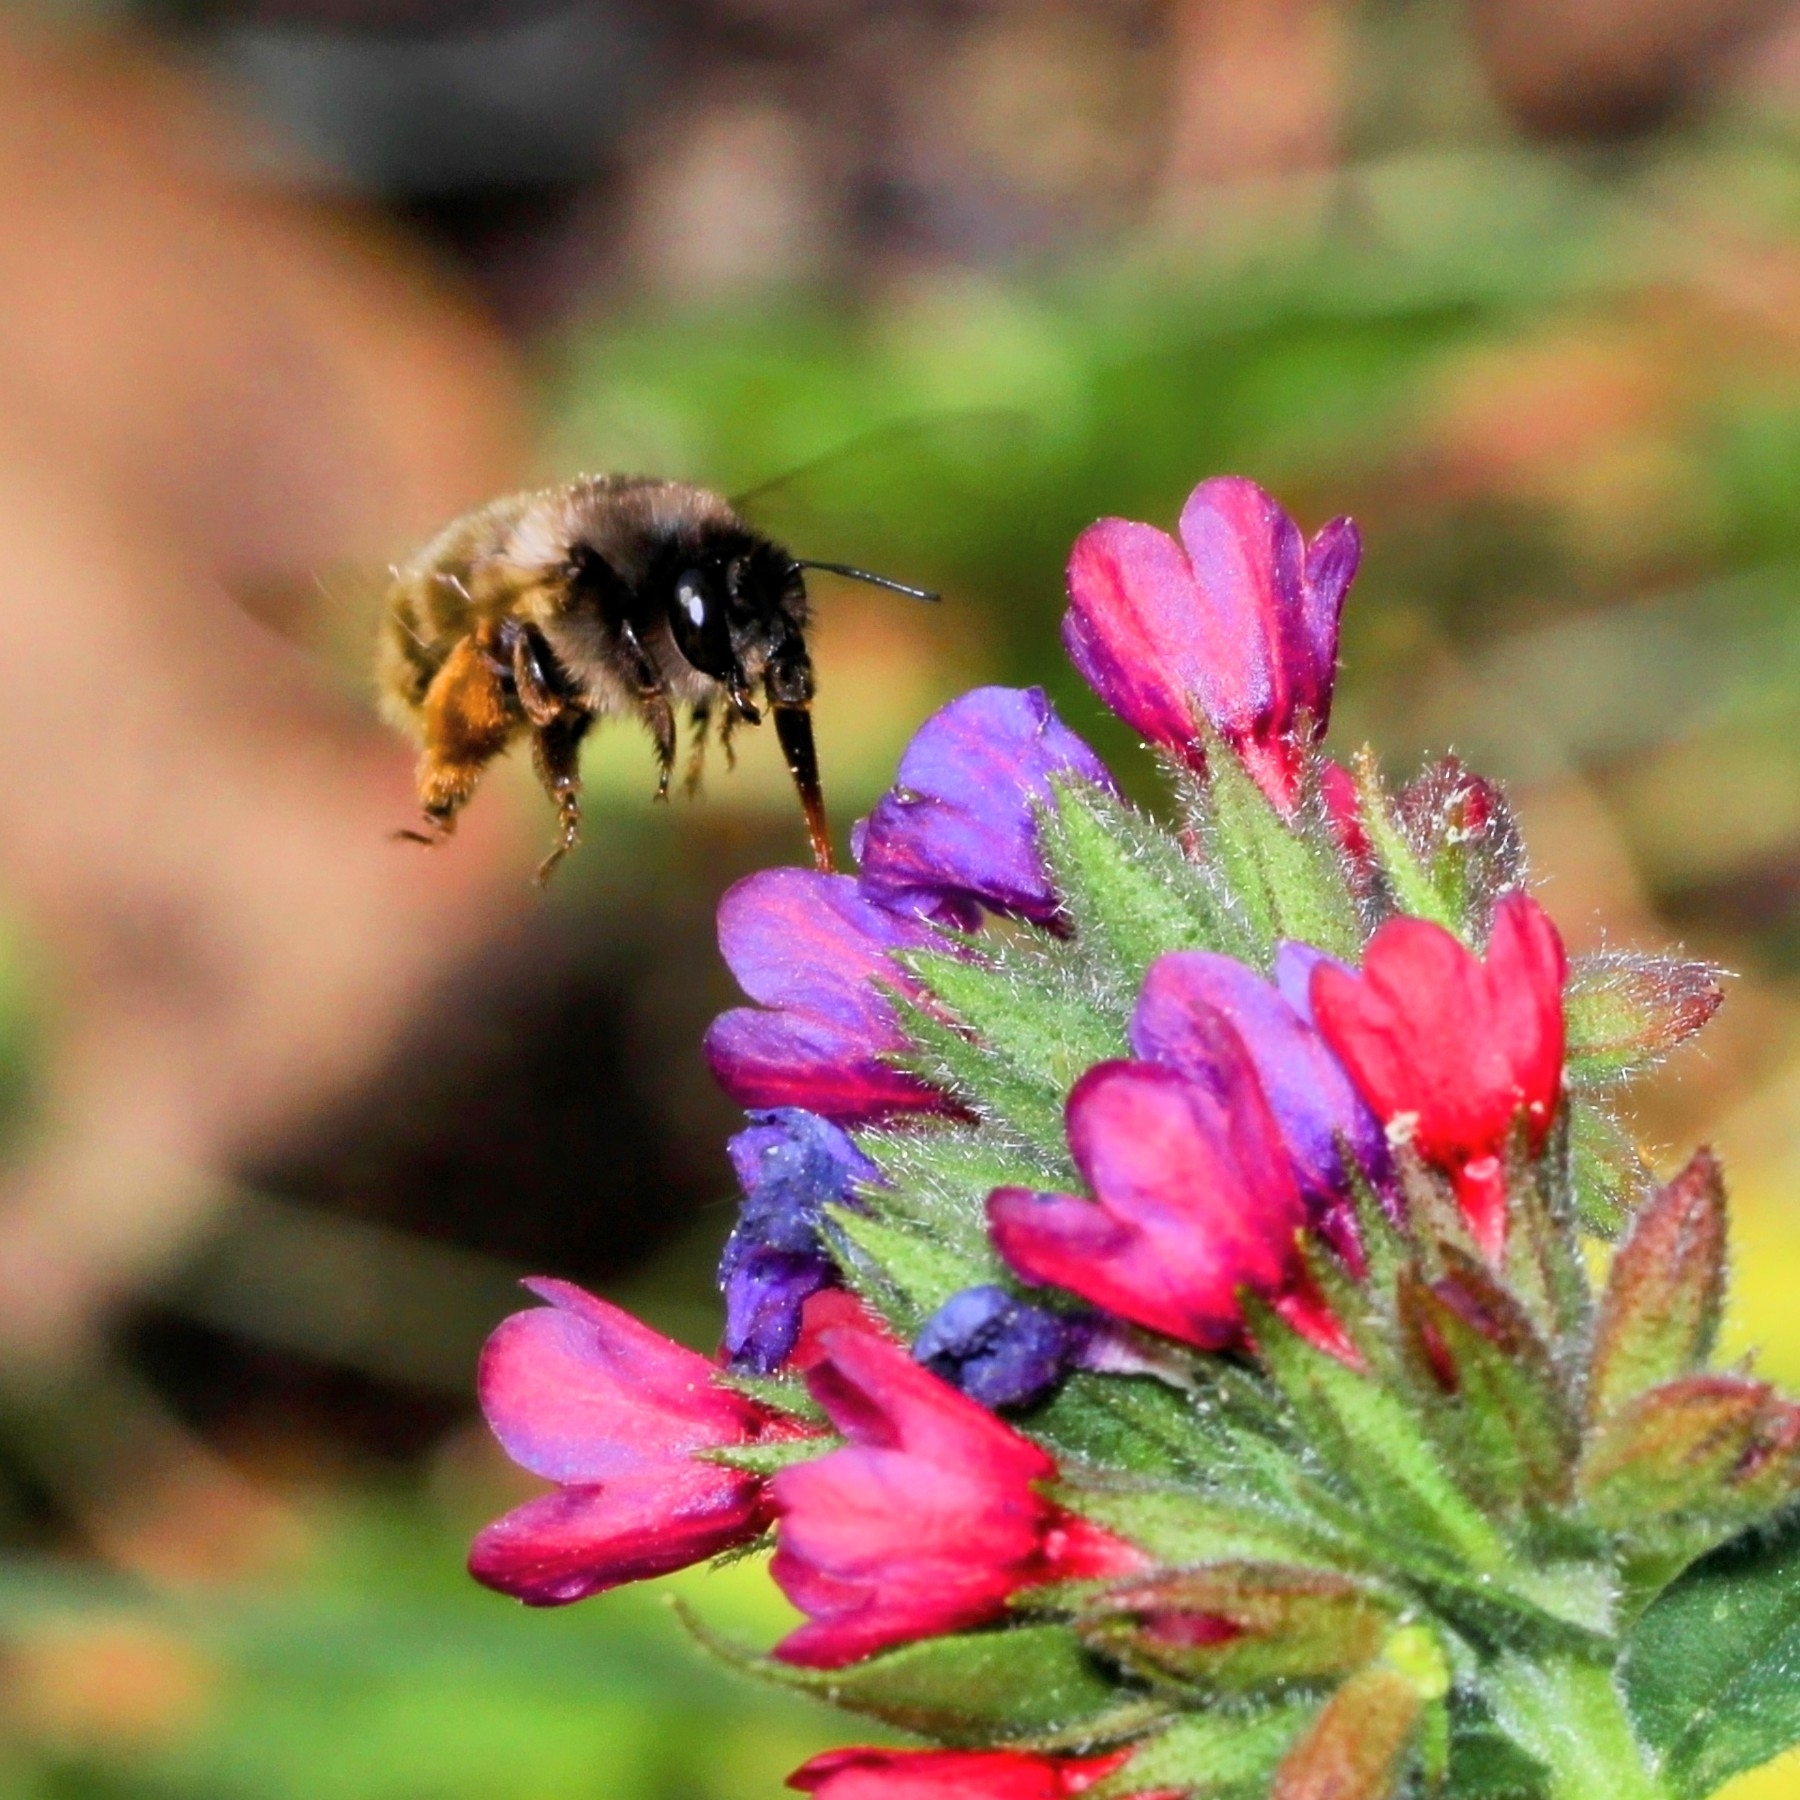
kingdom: Animalia
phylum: Arthropoda
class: Insecta
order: Hymenoptera
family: Apidae
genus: Anthophora
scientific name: Anthophora villosula
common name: Asian shaggy digger
